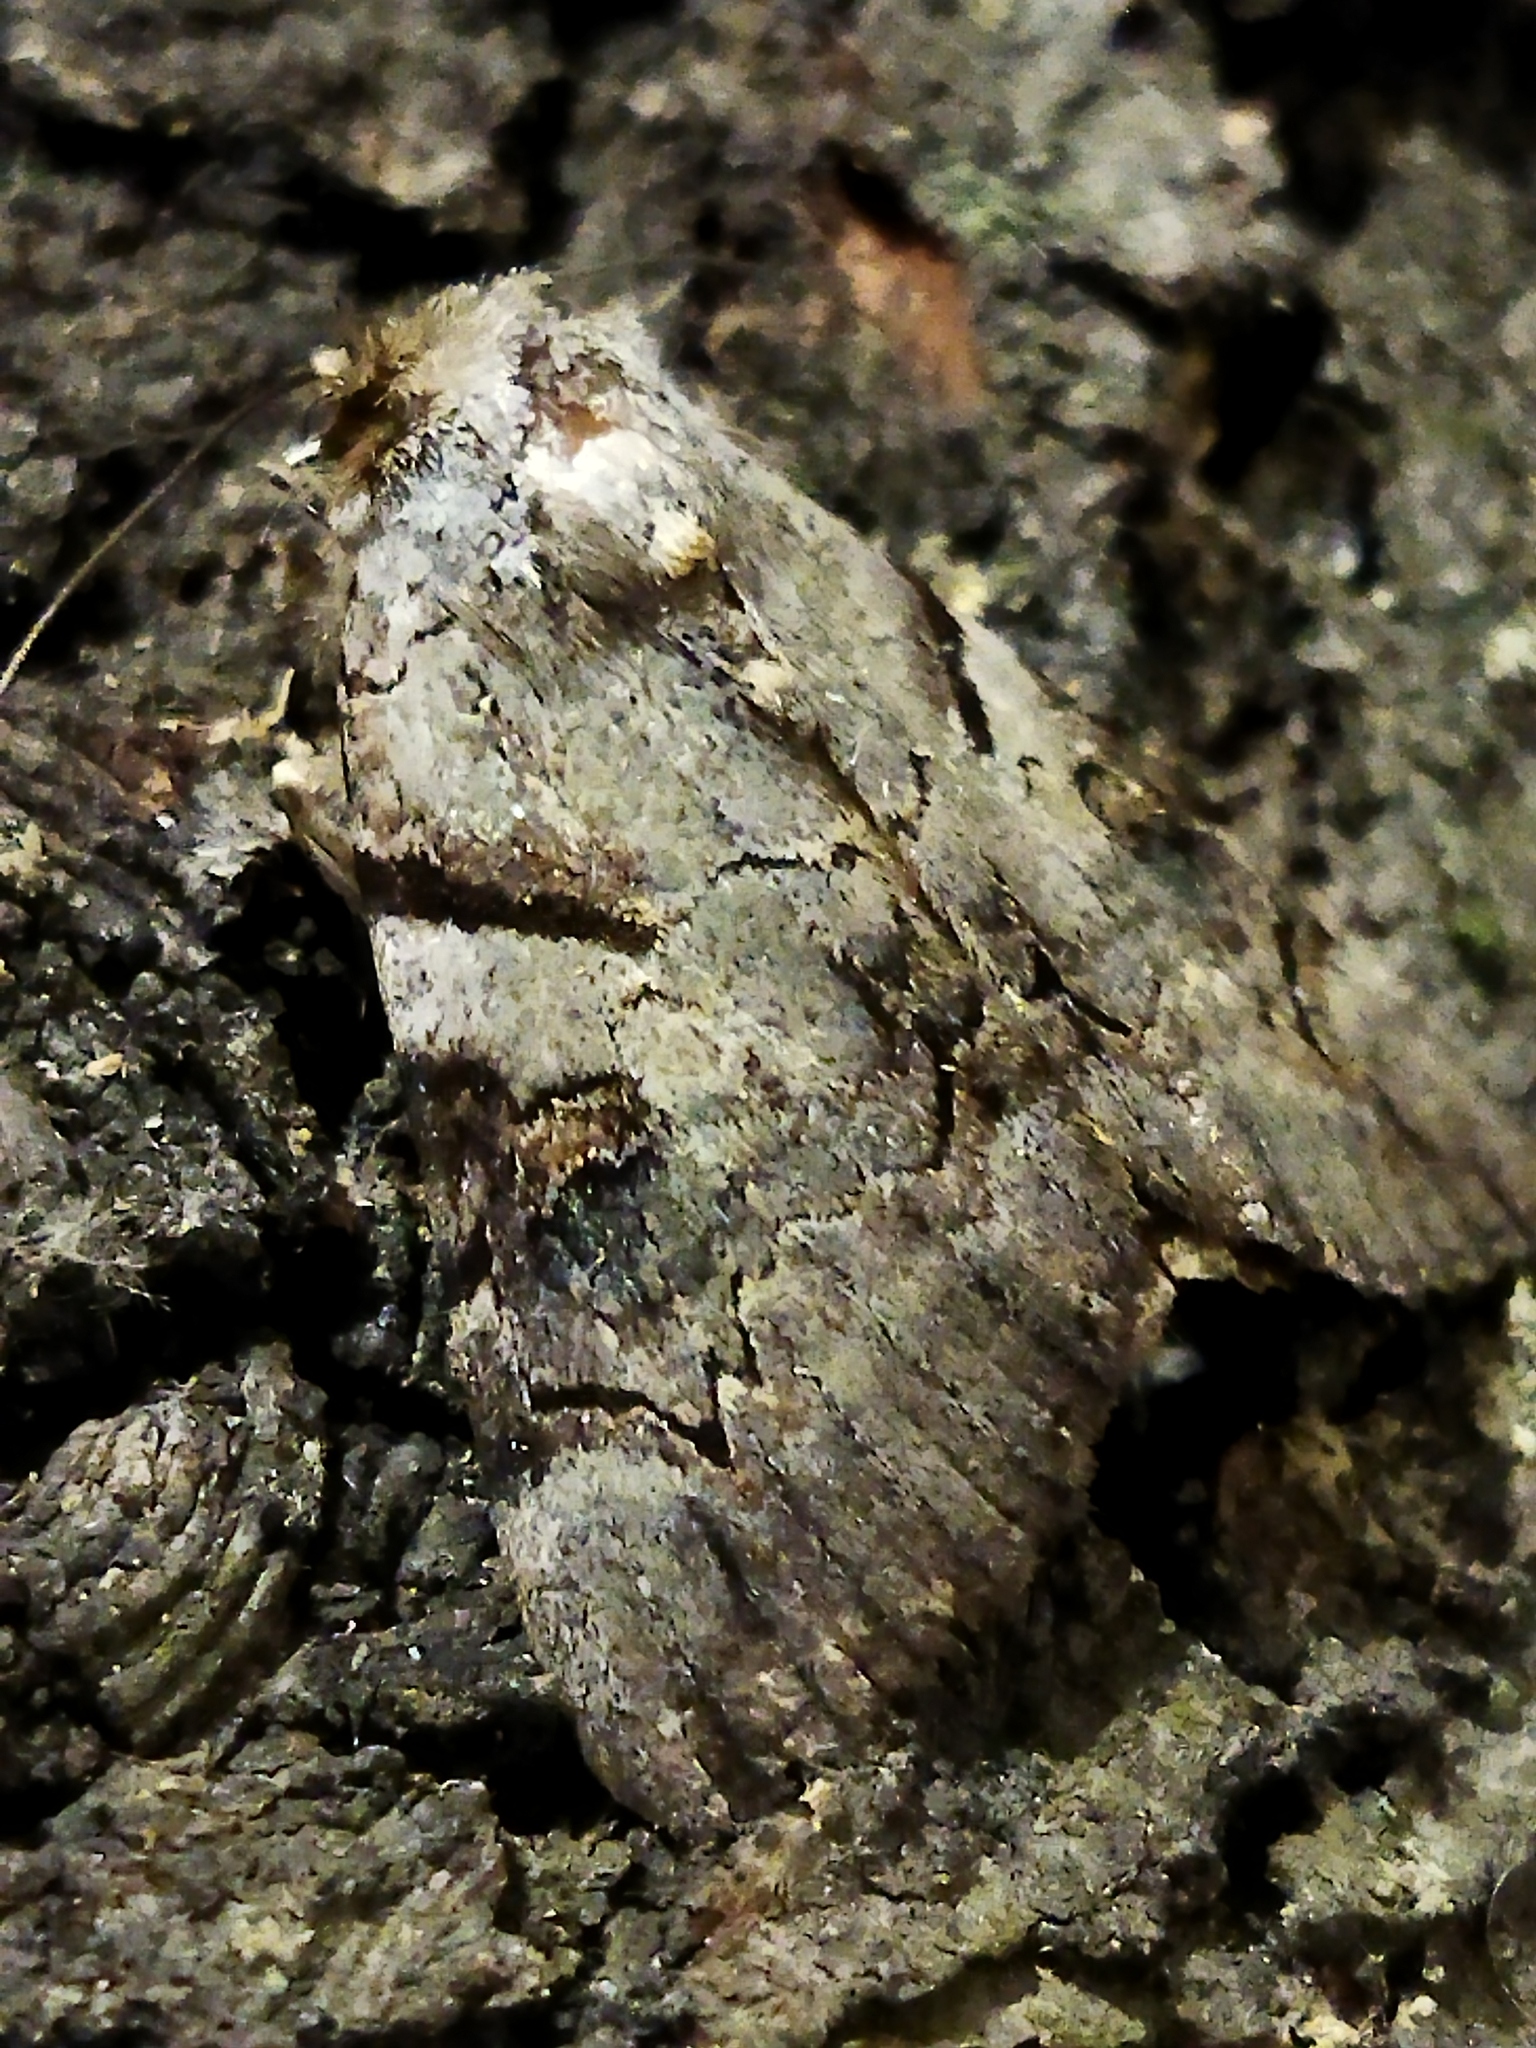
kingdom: Animalia
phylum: Arthropoda
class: Insecta
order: Lepidoptera
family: Erebidae
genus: Catocala
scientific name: Catocala hymenaea
